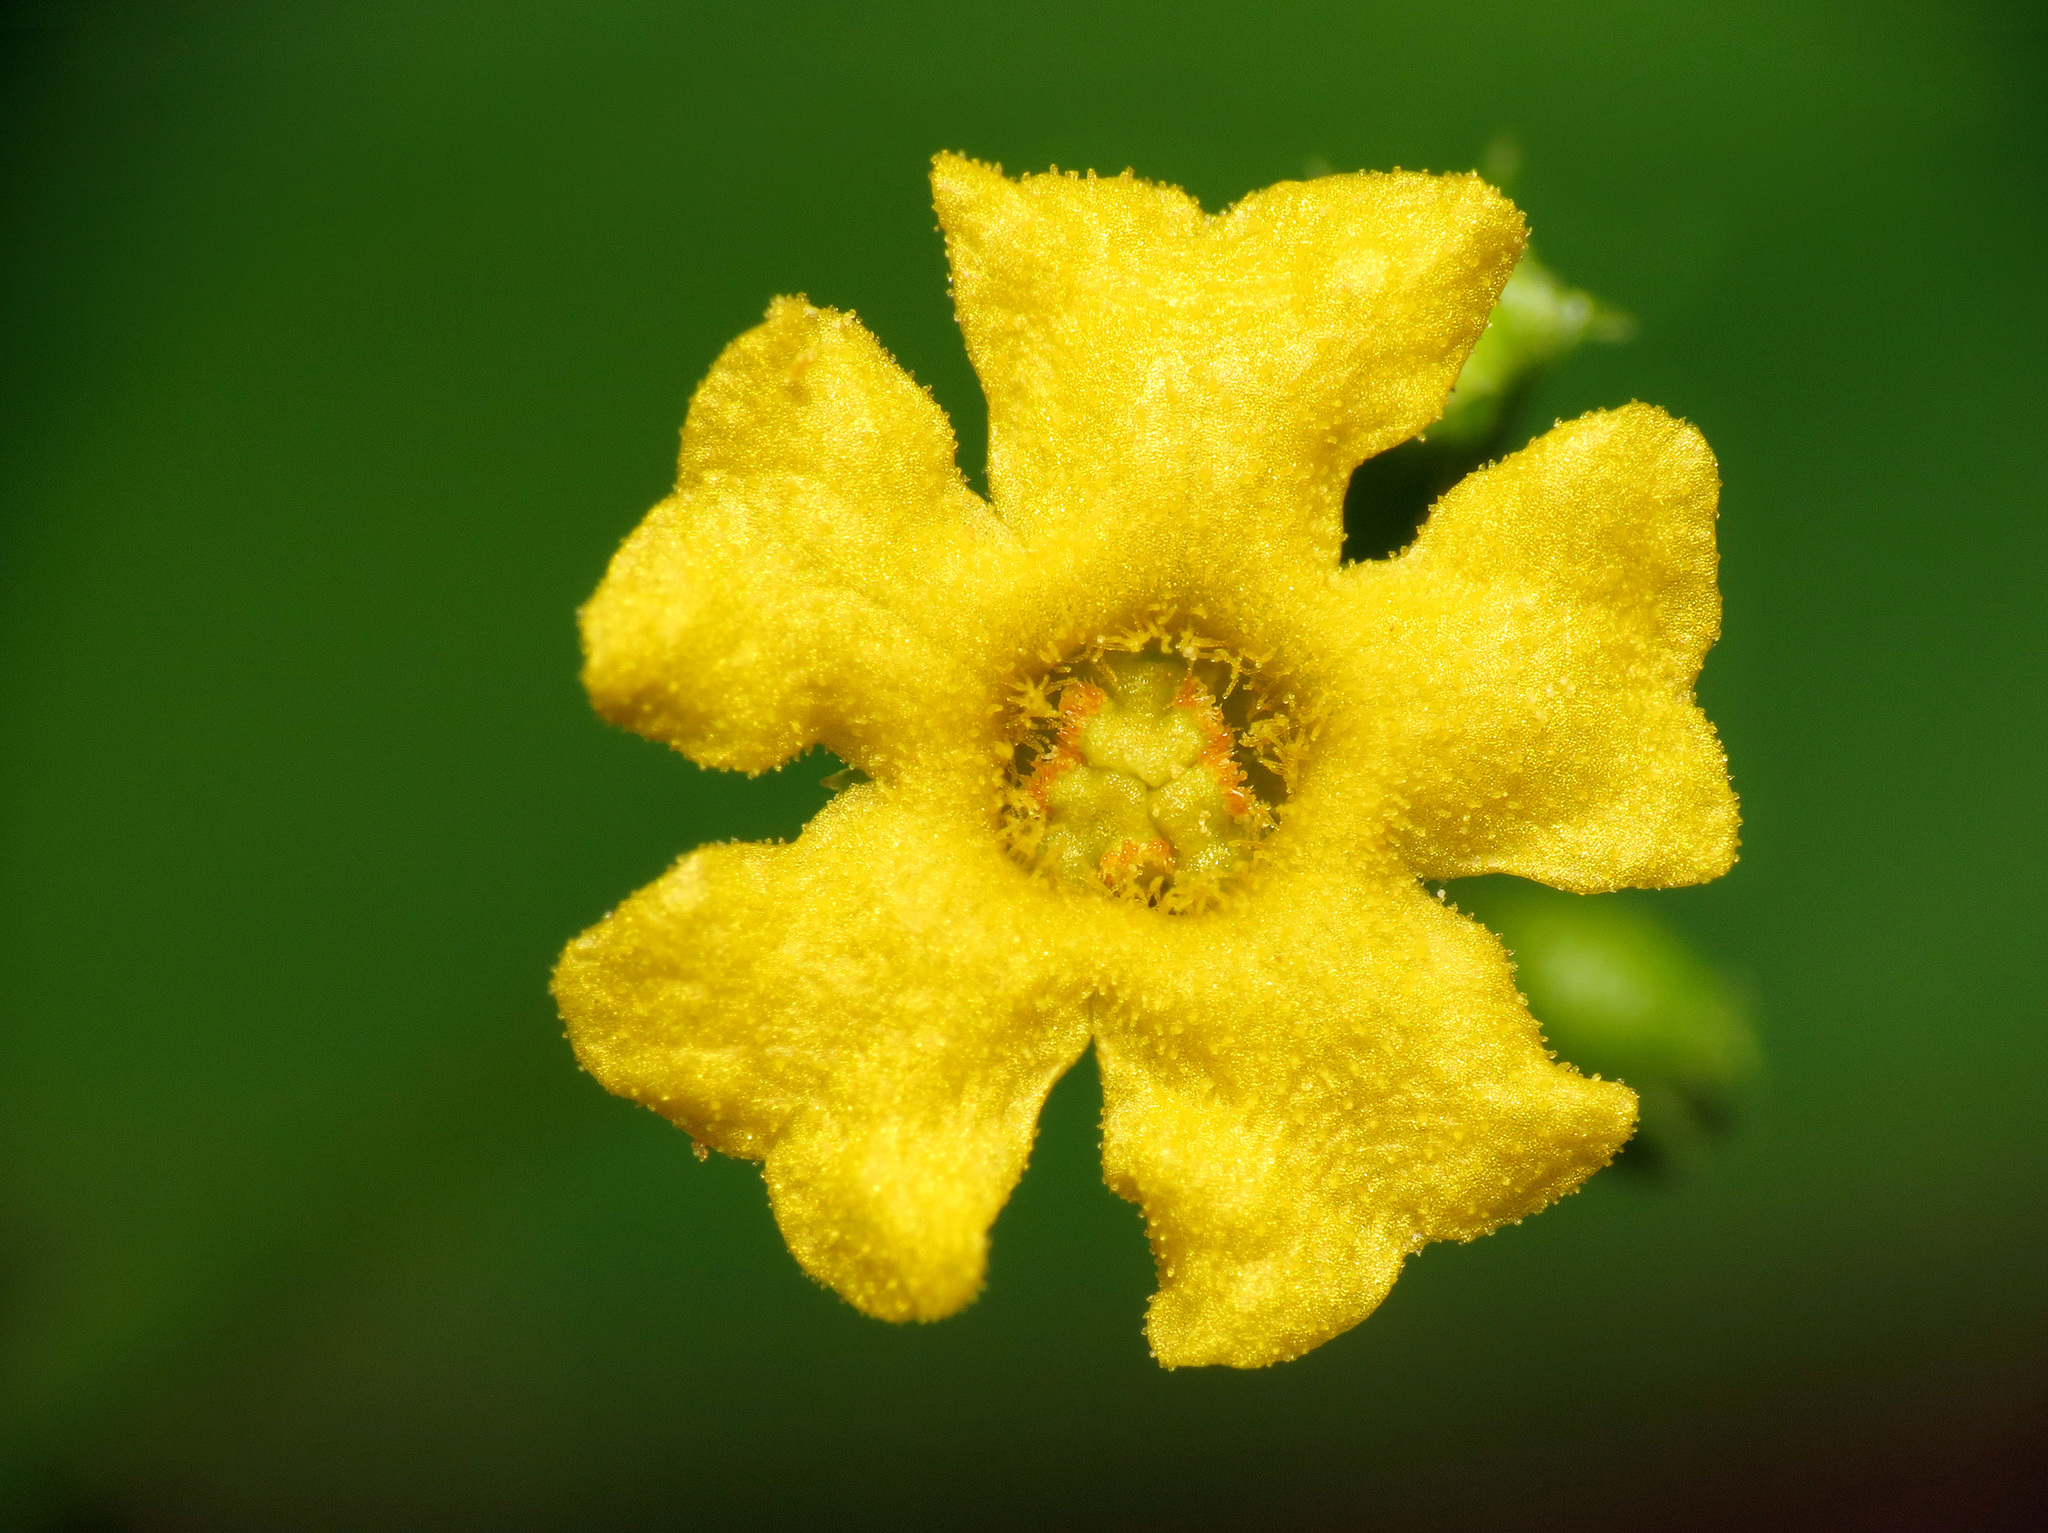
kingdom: Plantae
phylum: Tracheophyta
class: Magnoliopsida
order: Cucurbitales
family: Cucurbitaceae
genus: Melothria
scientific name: Melothria pendula
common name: Creeping-cucumber
